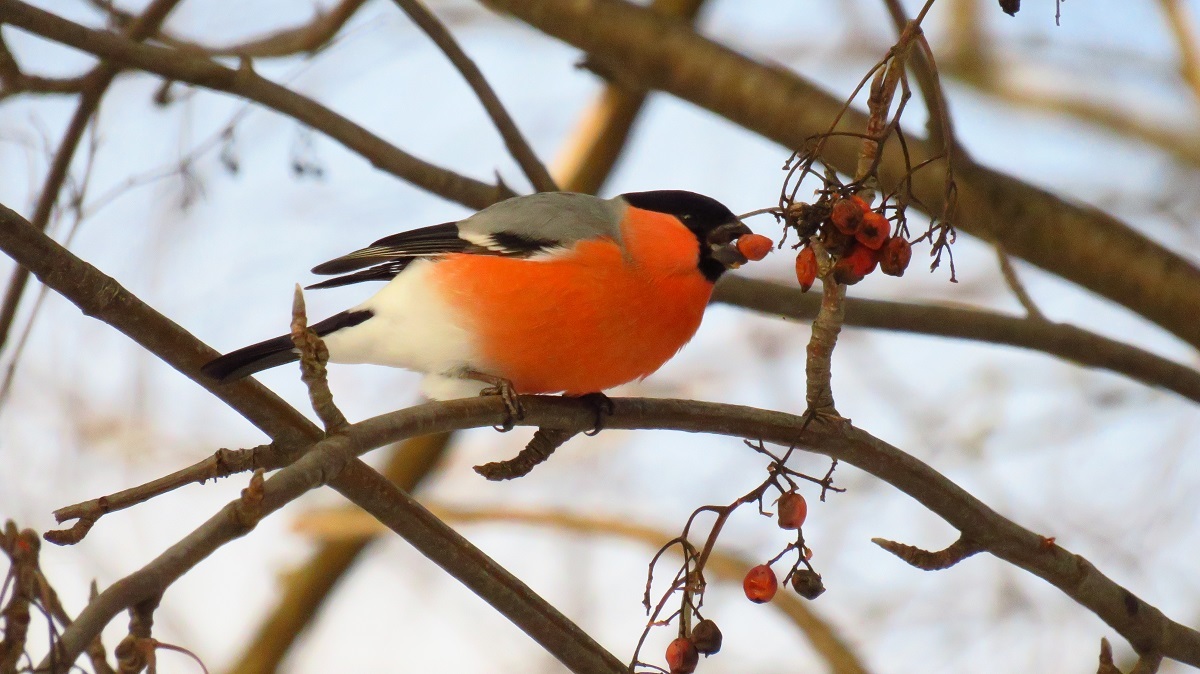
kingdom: Animalia
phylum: Chordata
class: Aves
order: Passeriformes
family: Fringillidae
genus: Pyrrhula
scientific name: Pyrrhula pyrrhula
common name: Eurasian bullfinch
